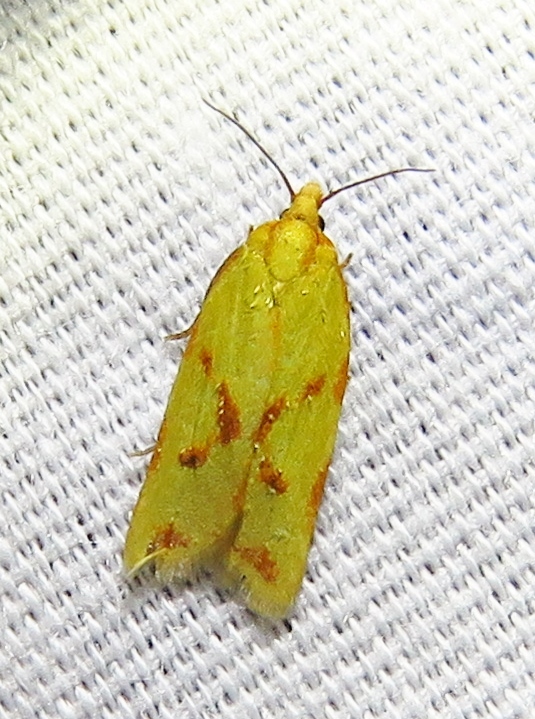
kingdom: Animalia
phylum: Arthropoda
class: Insecta
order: Lepidoptera
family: Tortricidae
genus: Sparganothis
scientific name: Sparganothis sulfureana
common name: Sparganothis fruitworm moth
